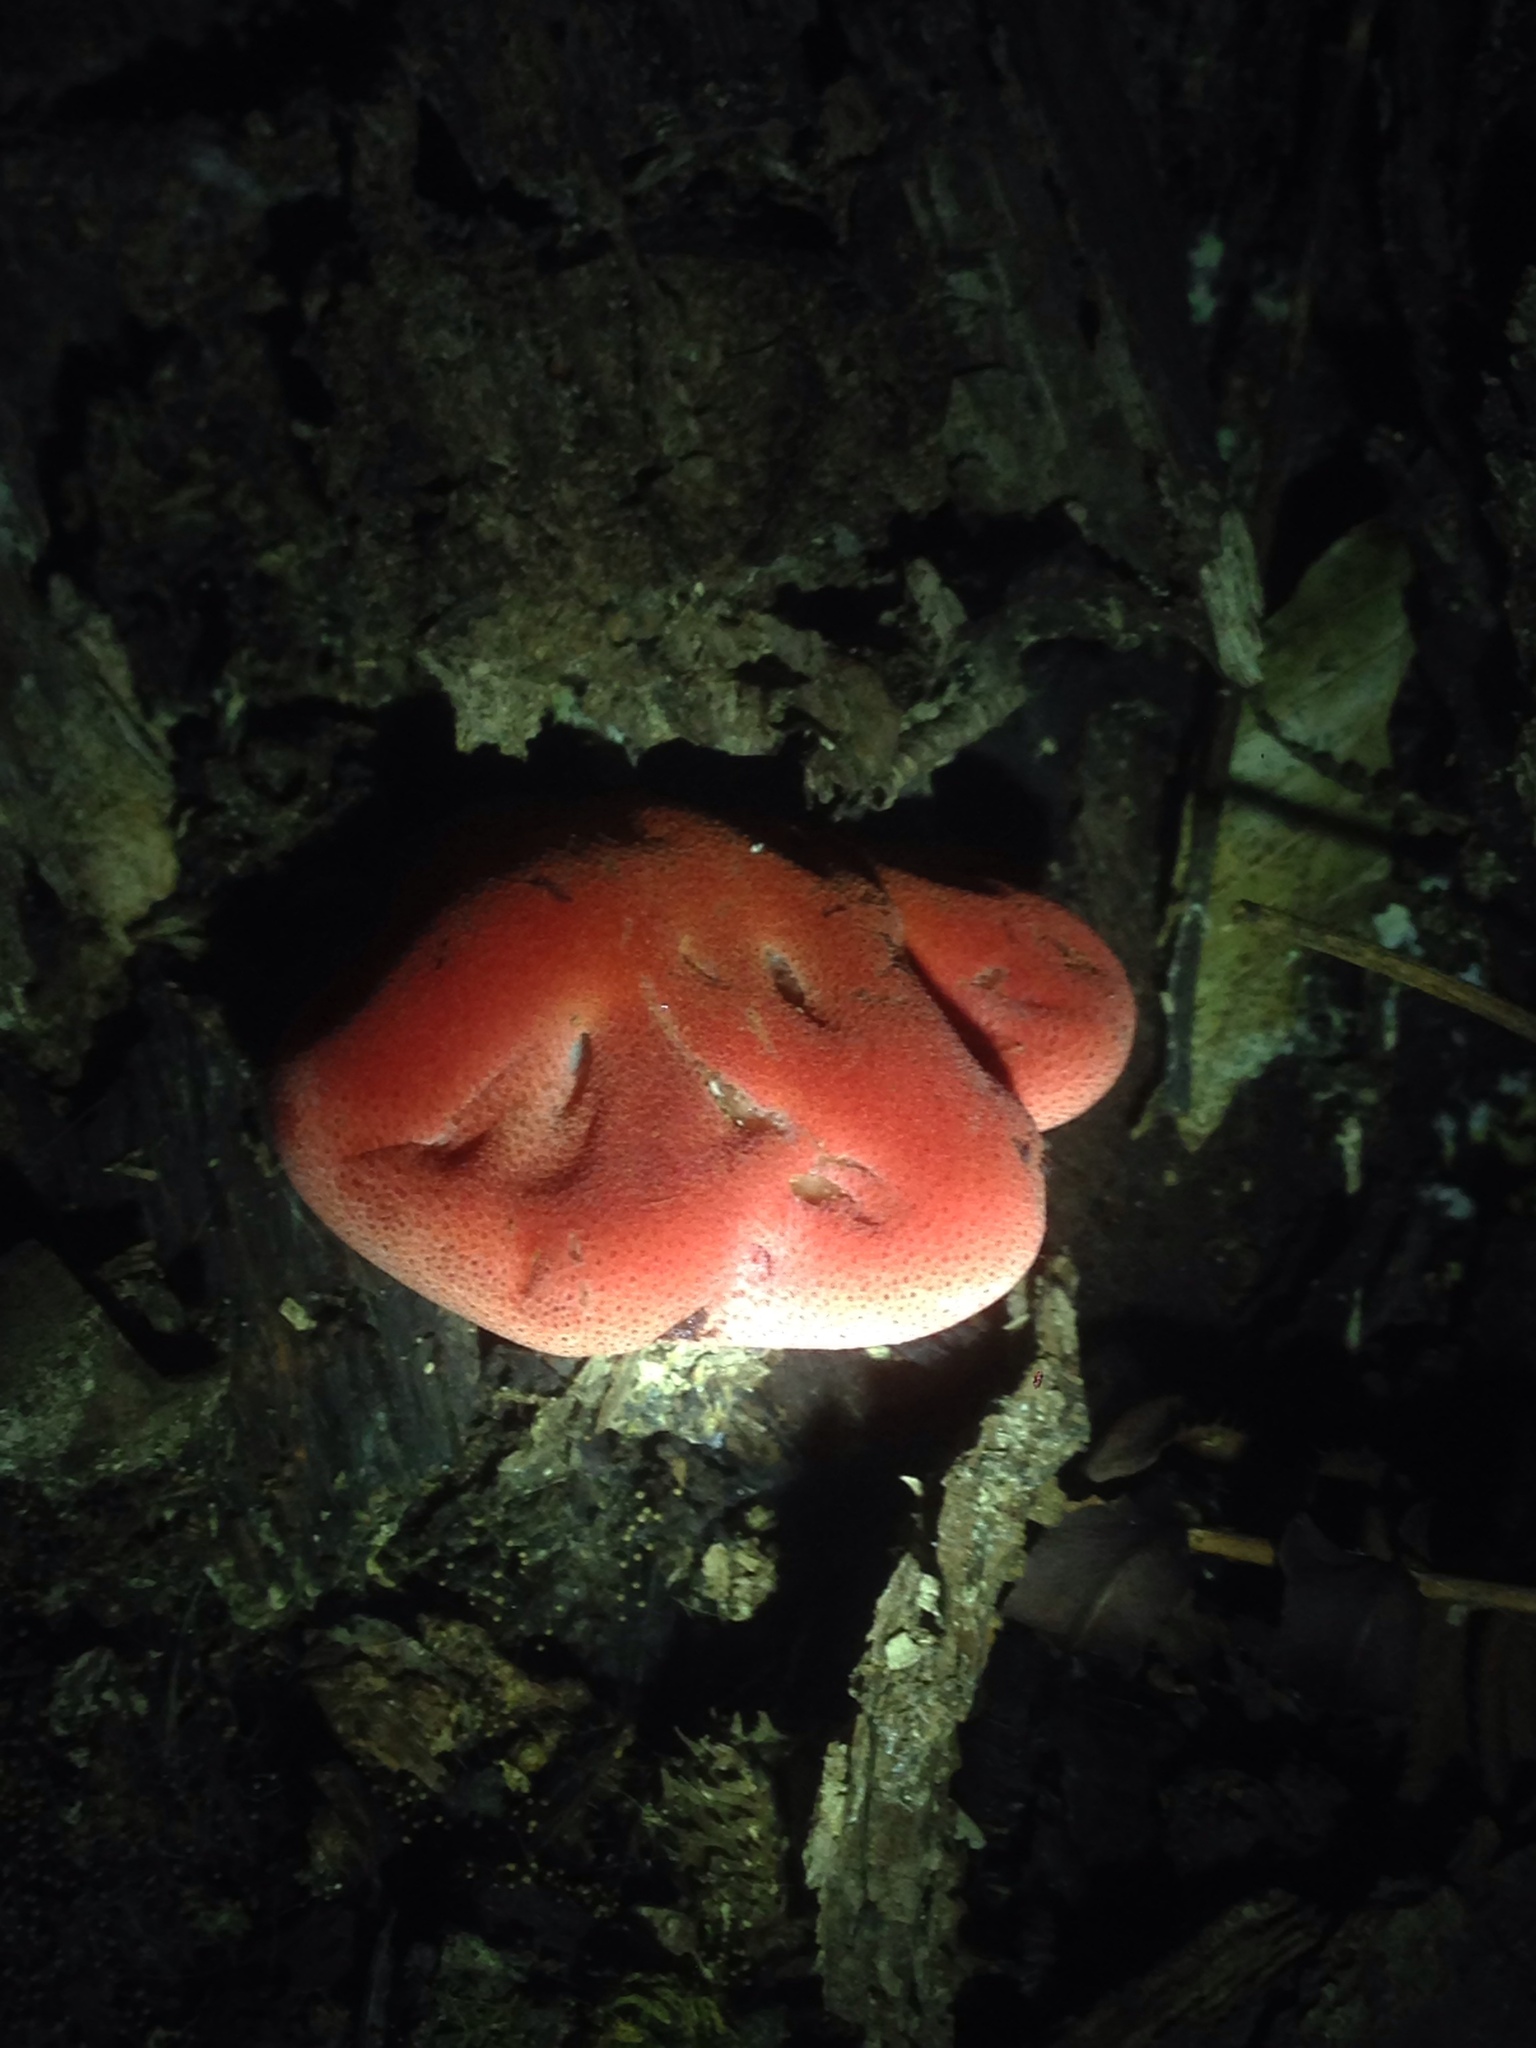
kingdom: Fungi
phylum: Basidiomycota
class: Agaricomycetes
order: Agaricales
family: Fistulinaceae
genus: Fistulina
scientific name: Fistulina hepatica
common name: Beef-steak fungus
